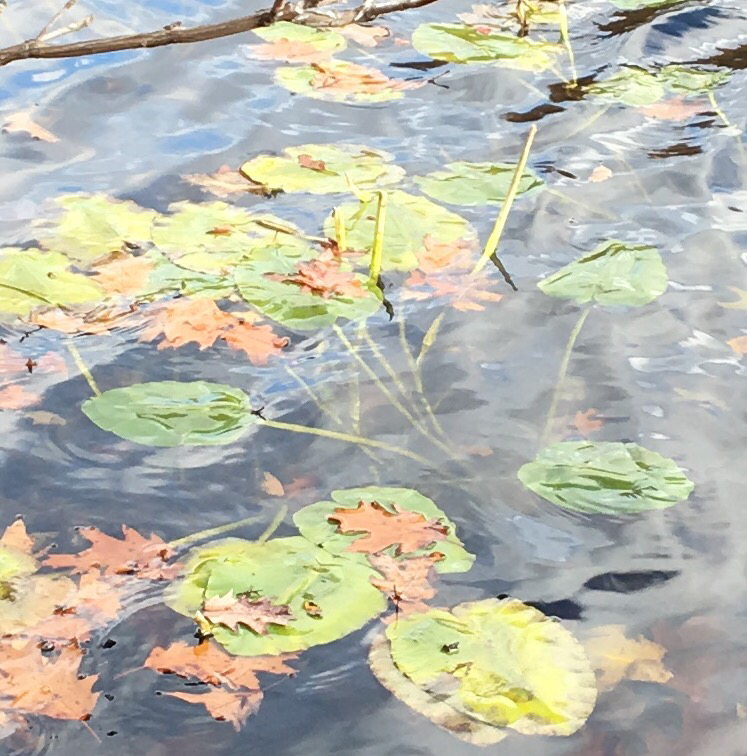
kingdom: Plantae
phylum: Tracheophyta
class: Magnoliopsida
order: Nymphaeales
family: Nymphaeaceae
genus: Nuphar
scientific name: Nuphar variegata
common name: Beaver-root
